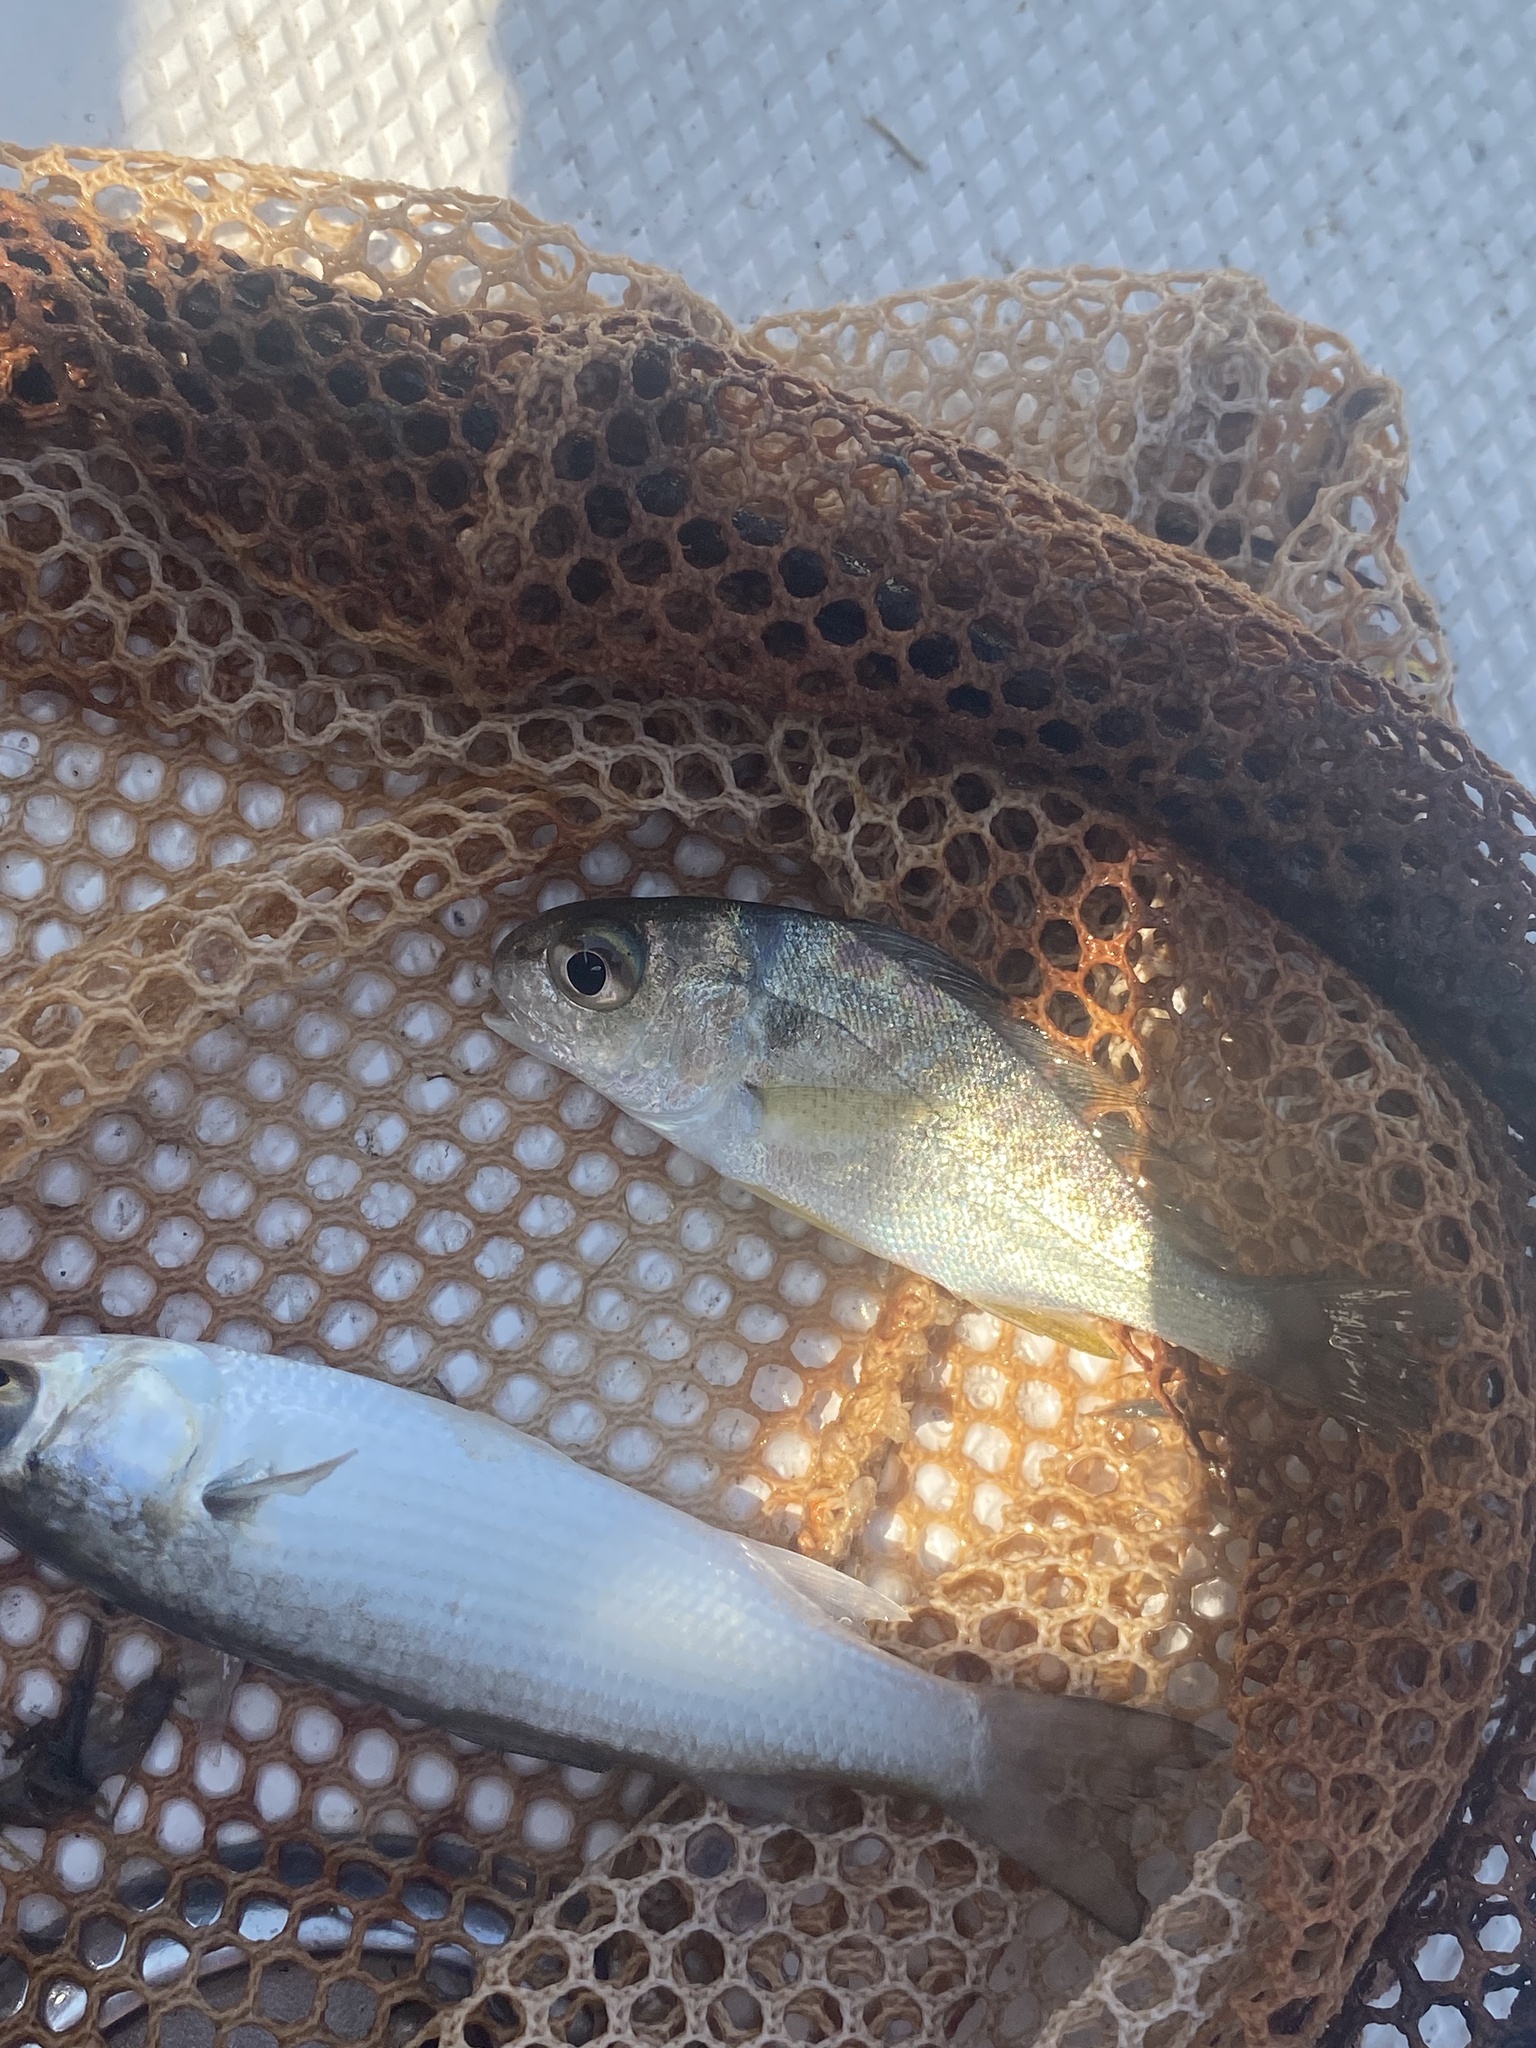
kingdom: Animalia
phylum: Chordata
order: Perciformes
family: Sciaenidae
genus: Leiostomus
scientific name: Leiostomus xanthurus
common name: Spot
